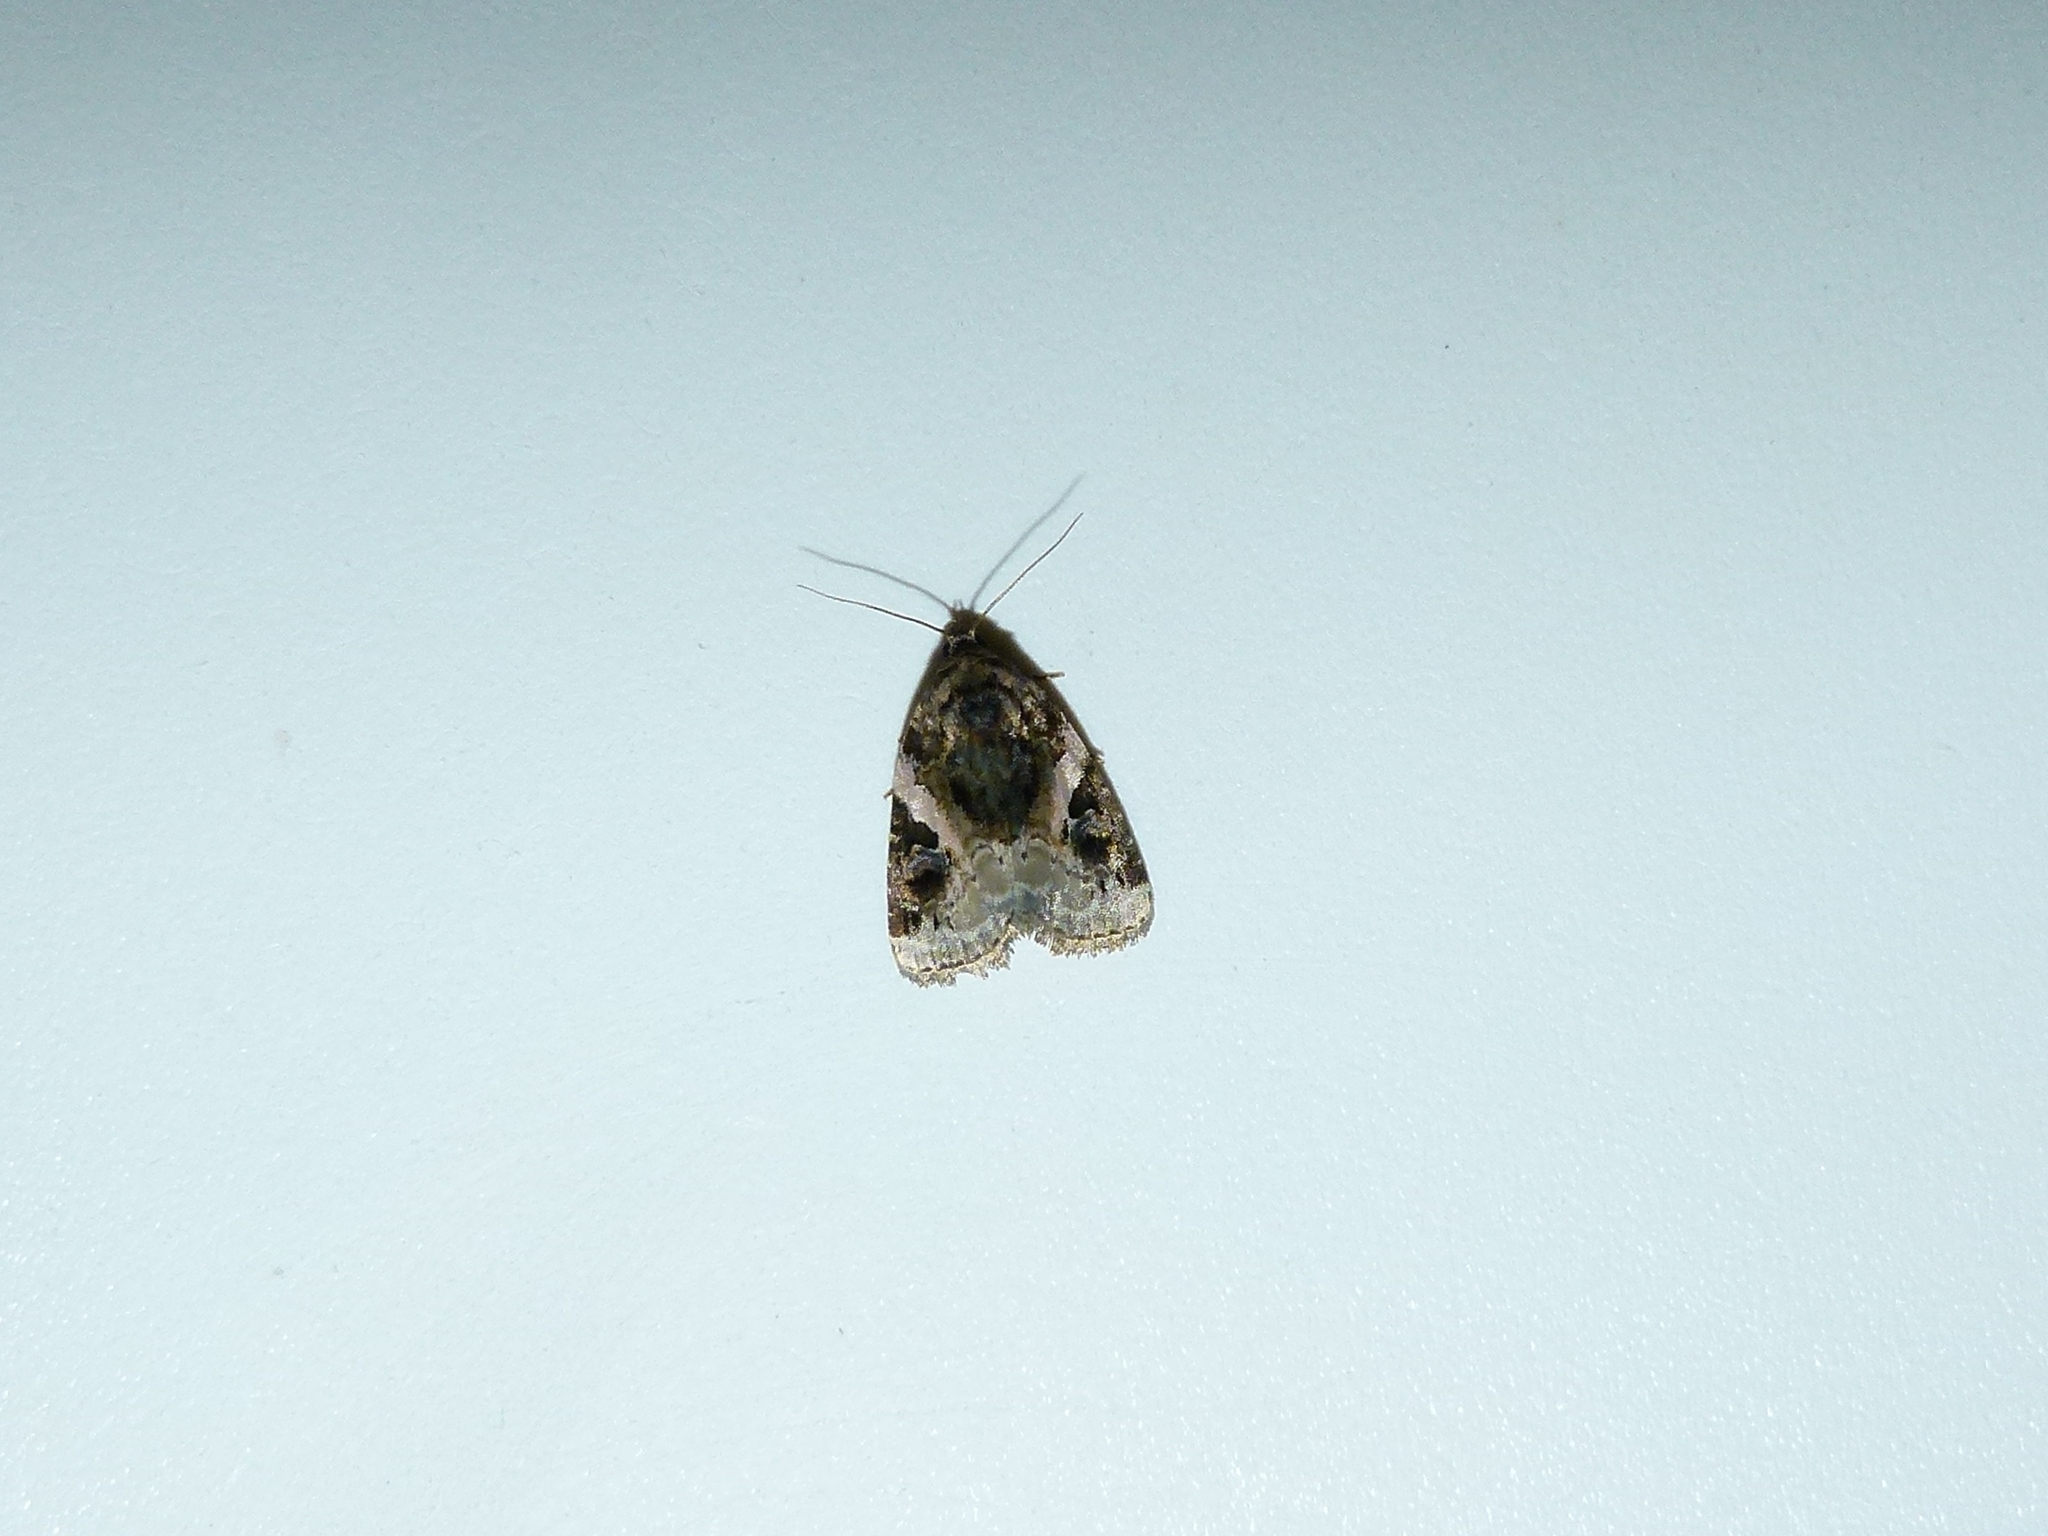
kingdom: Animalia
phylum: Arthropoda
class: Insecta
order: Lepidoptera
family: Noctuidae
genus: Pseudeustrotia
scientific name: Pseudeustrotia carneola
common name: Pink-barred lithacodia moth
